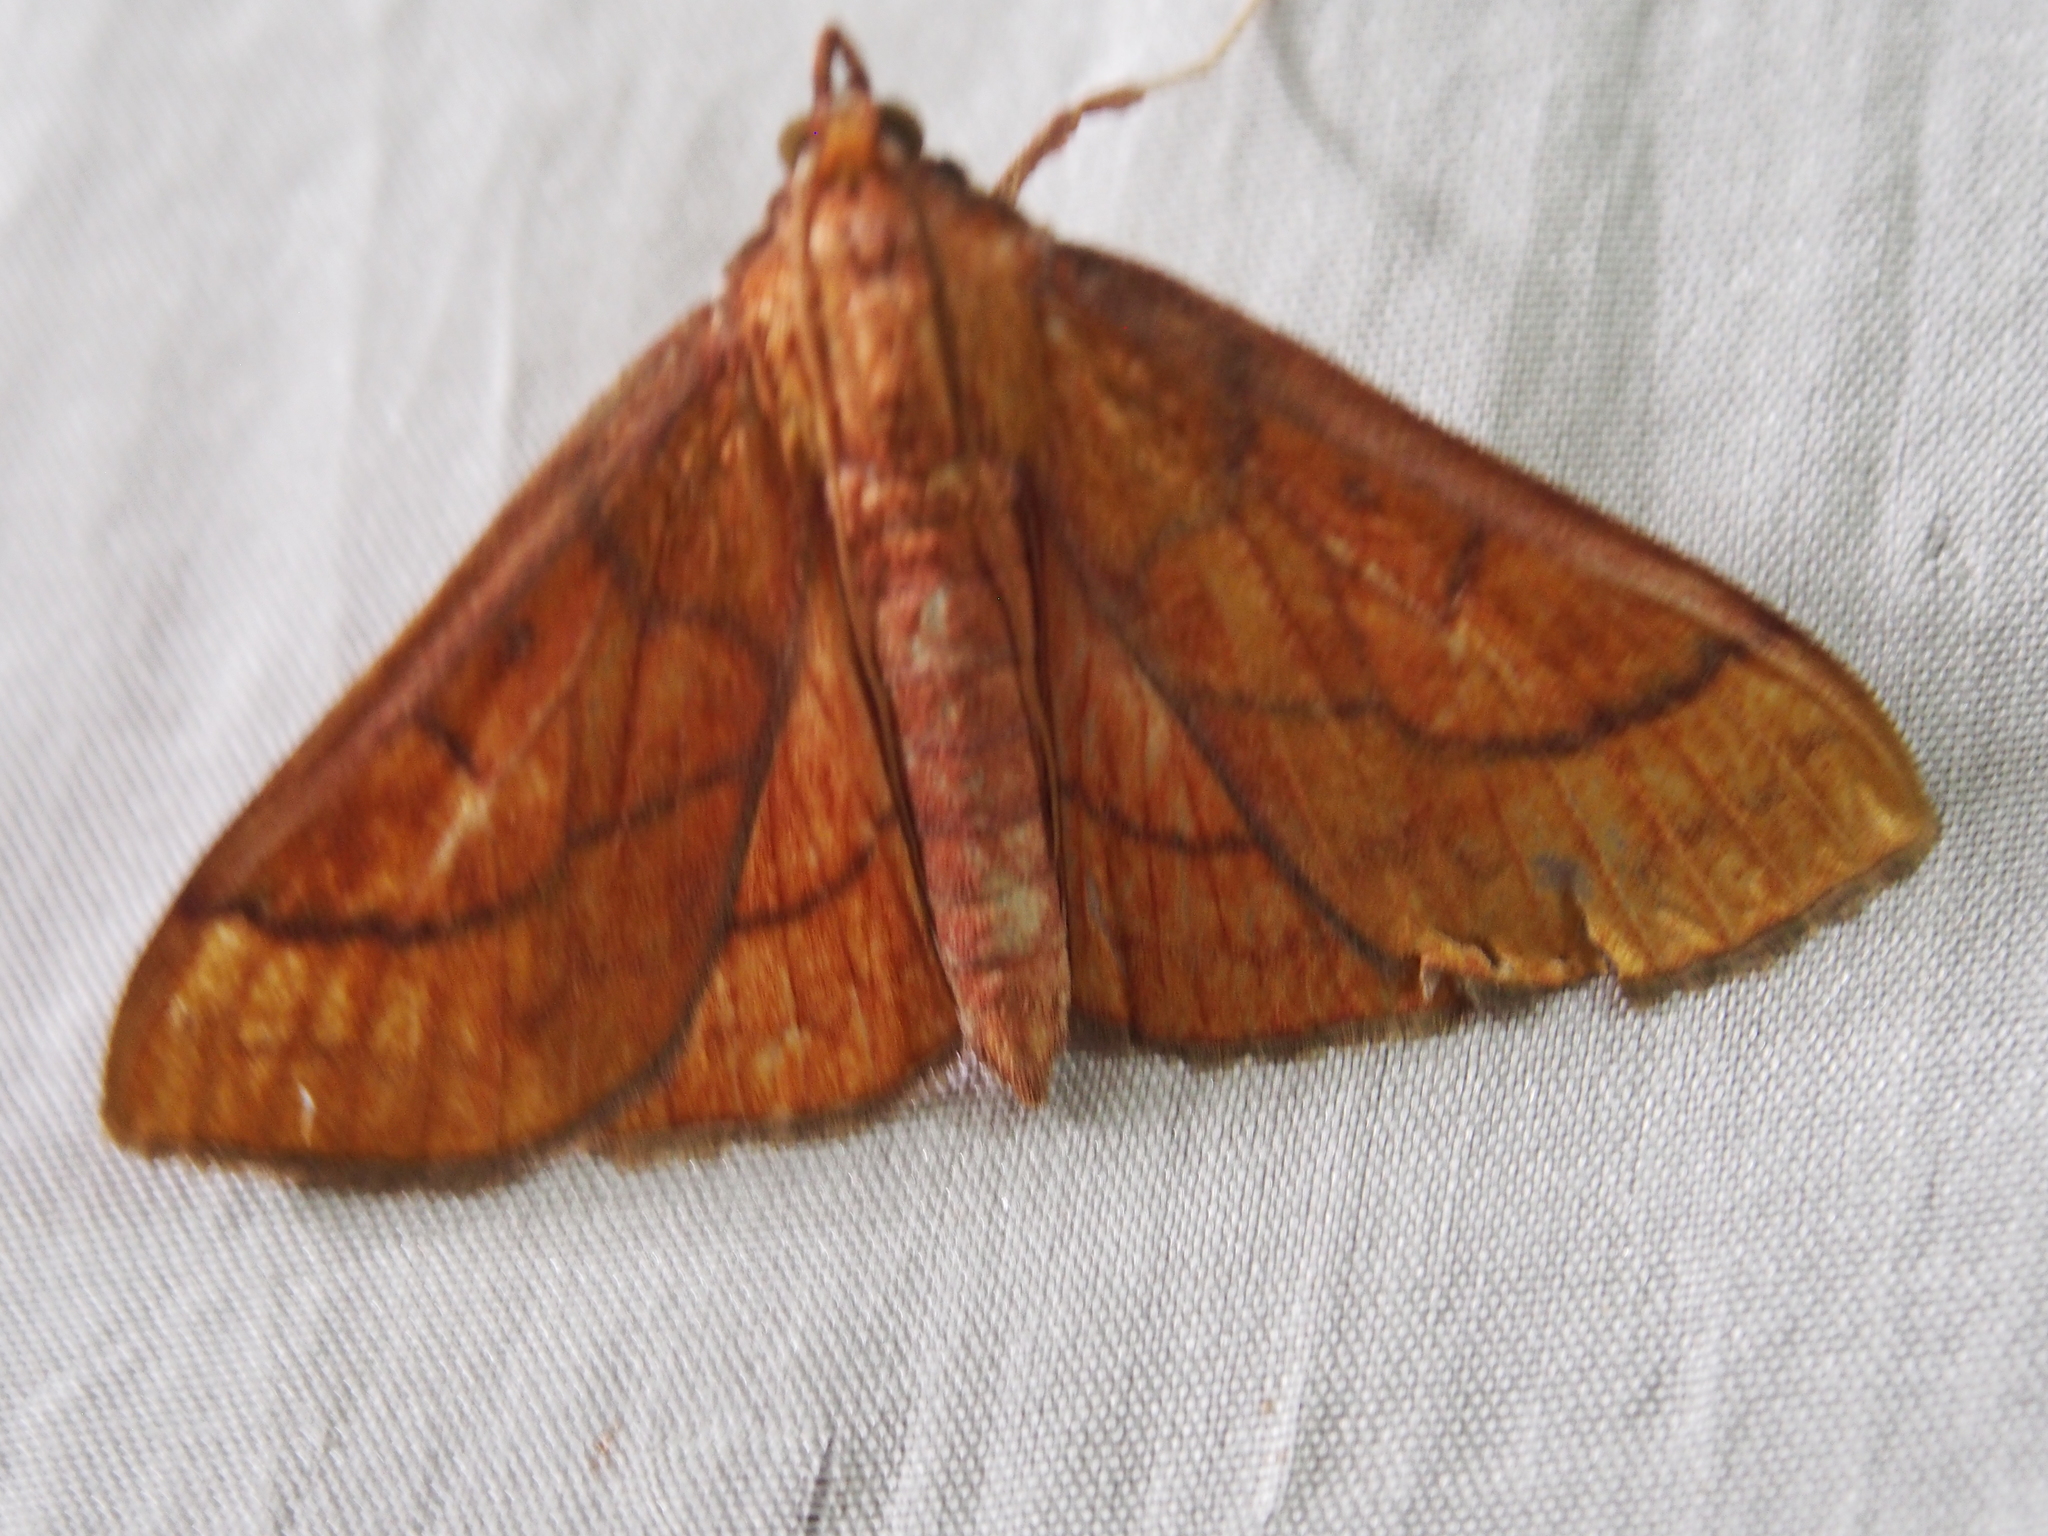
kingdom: Animalia
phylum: Arthropoda
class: Insecta
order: Lepidoptera
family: Crambidae
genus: Polygrammodes
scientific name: Polygrammodes hercules
